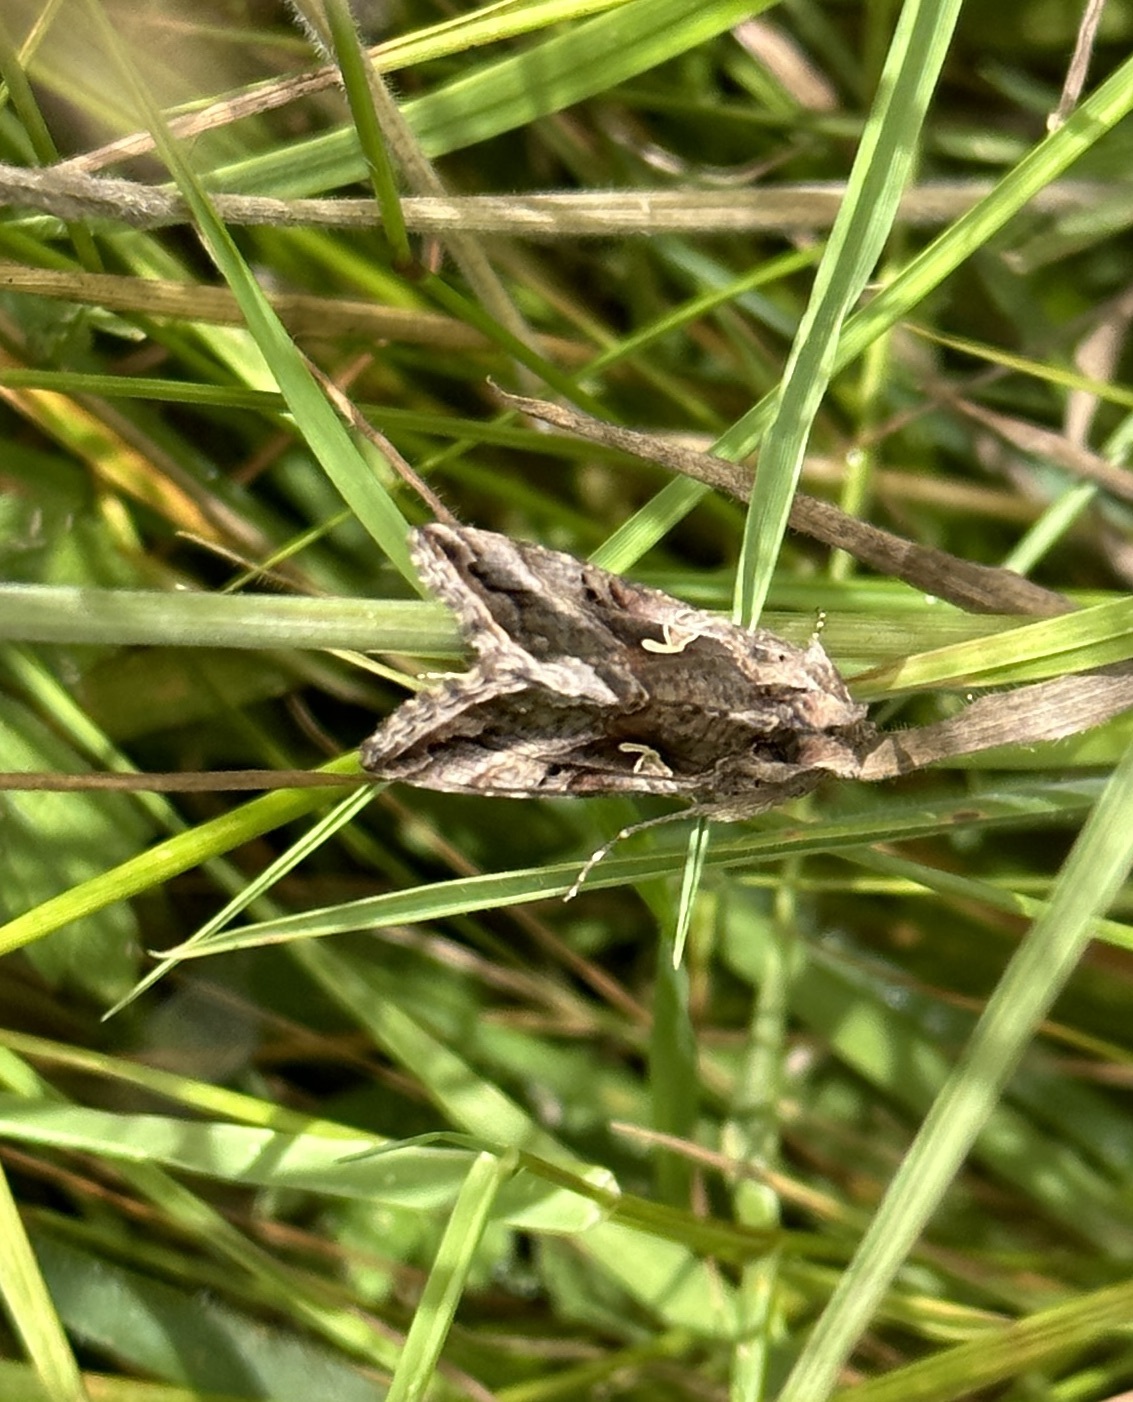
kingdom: Animalia
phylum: Arthropoda
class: Insecta
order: Lepidoptera
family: Noctuidae
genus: Autographa
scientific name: Autographa gamma
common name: Silver y
